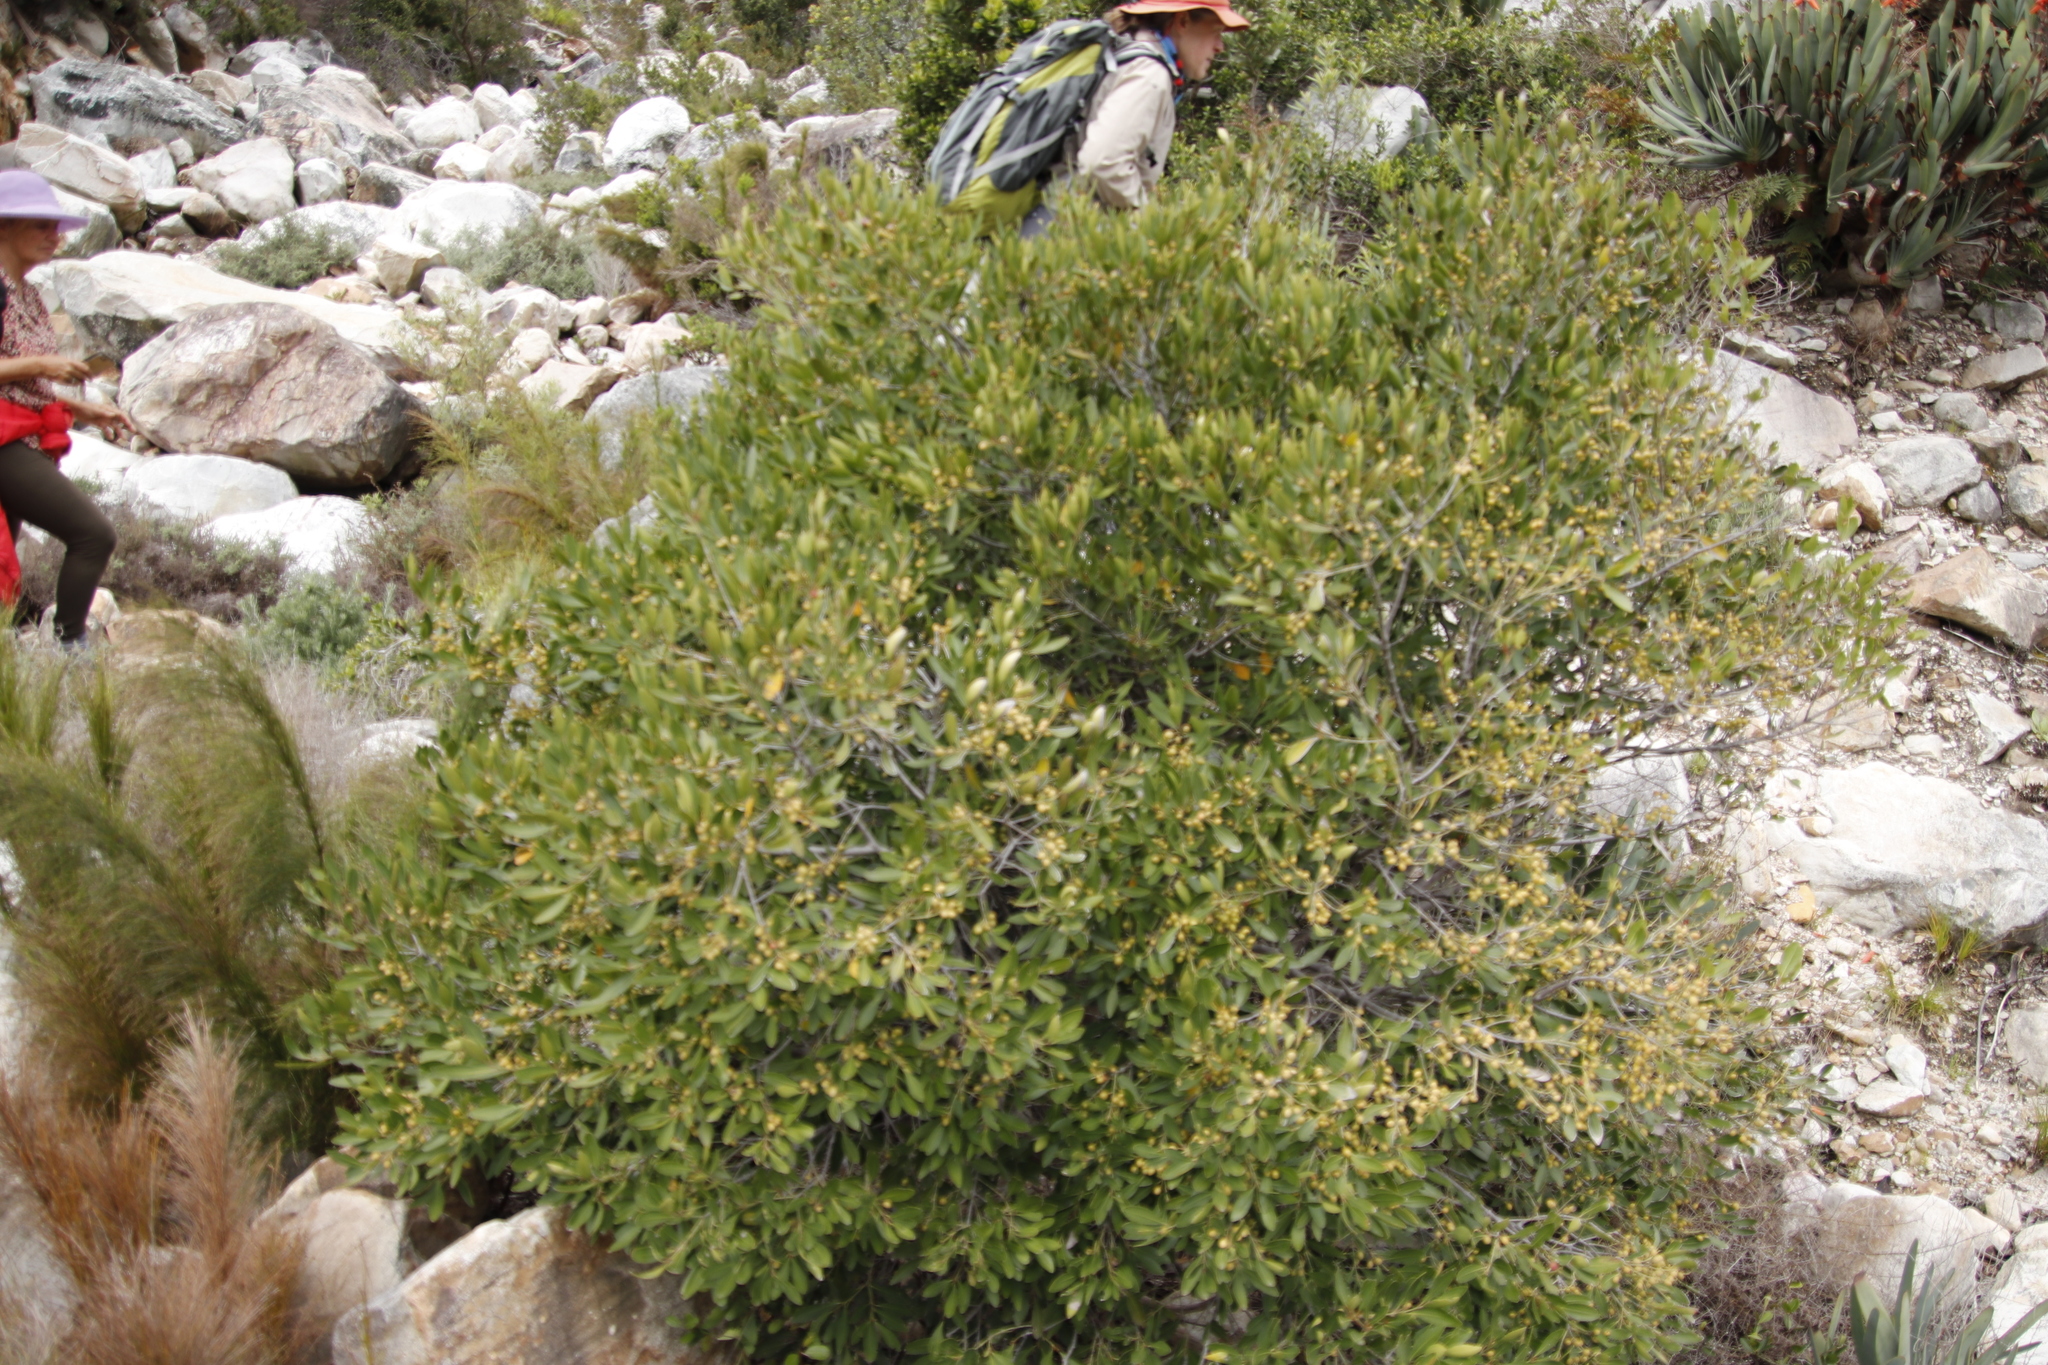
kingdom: Plantae
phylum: Tracheophyta
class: Magnoliopsida
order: Celastrales
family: Celastraceae
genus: Elaeodendron
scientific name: Elaeodendron schinoides
